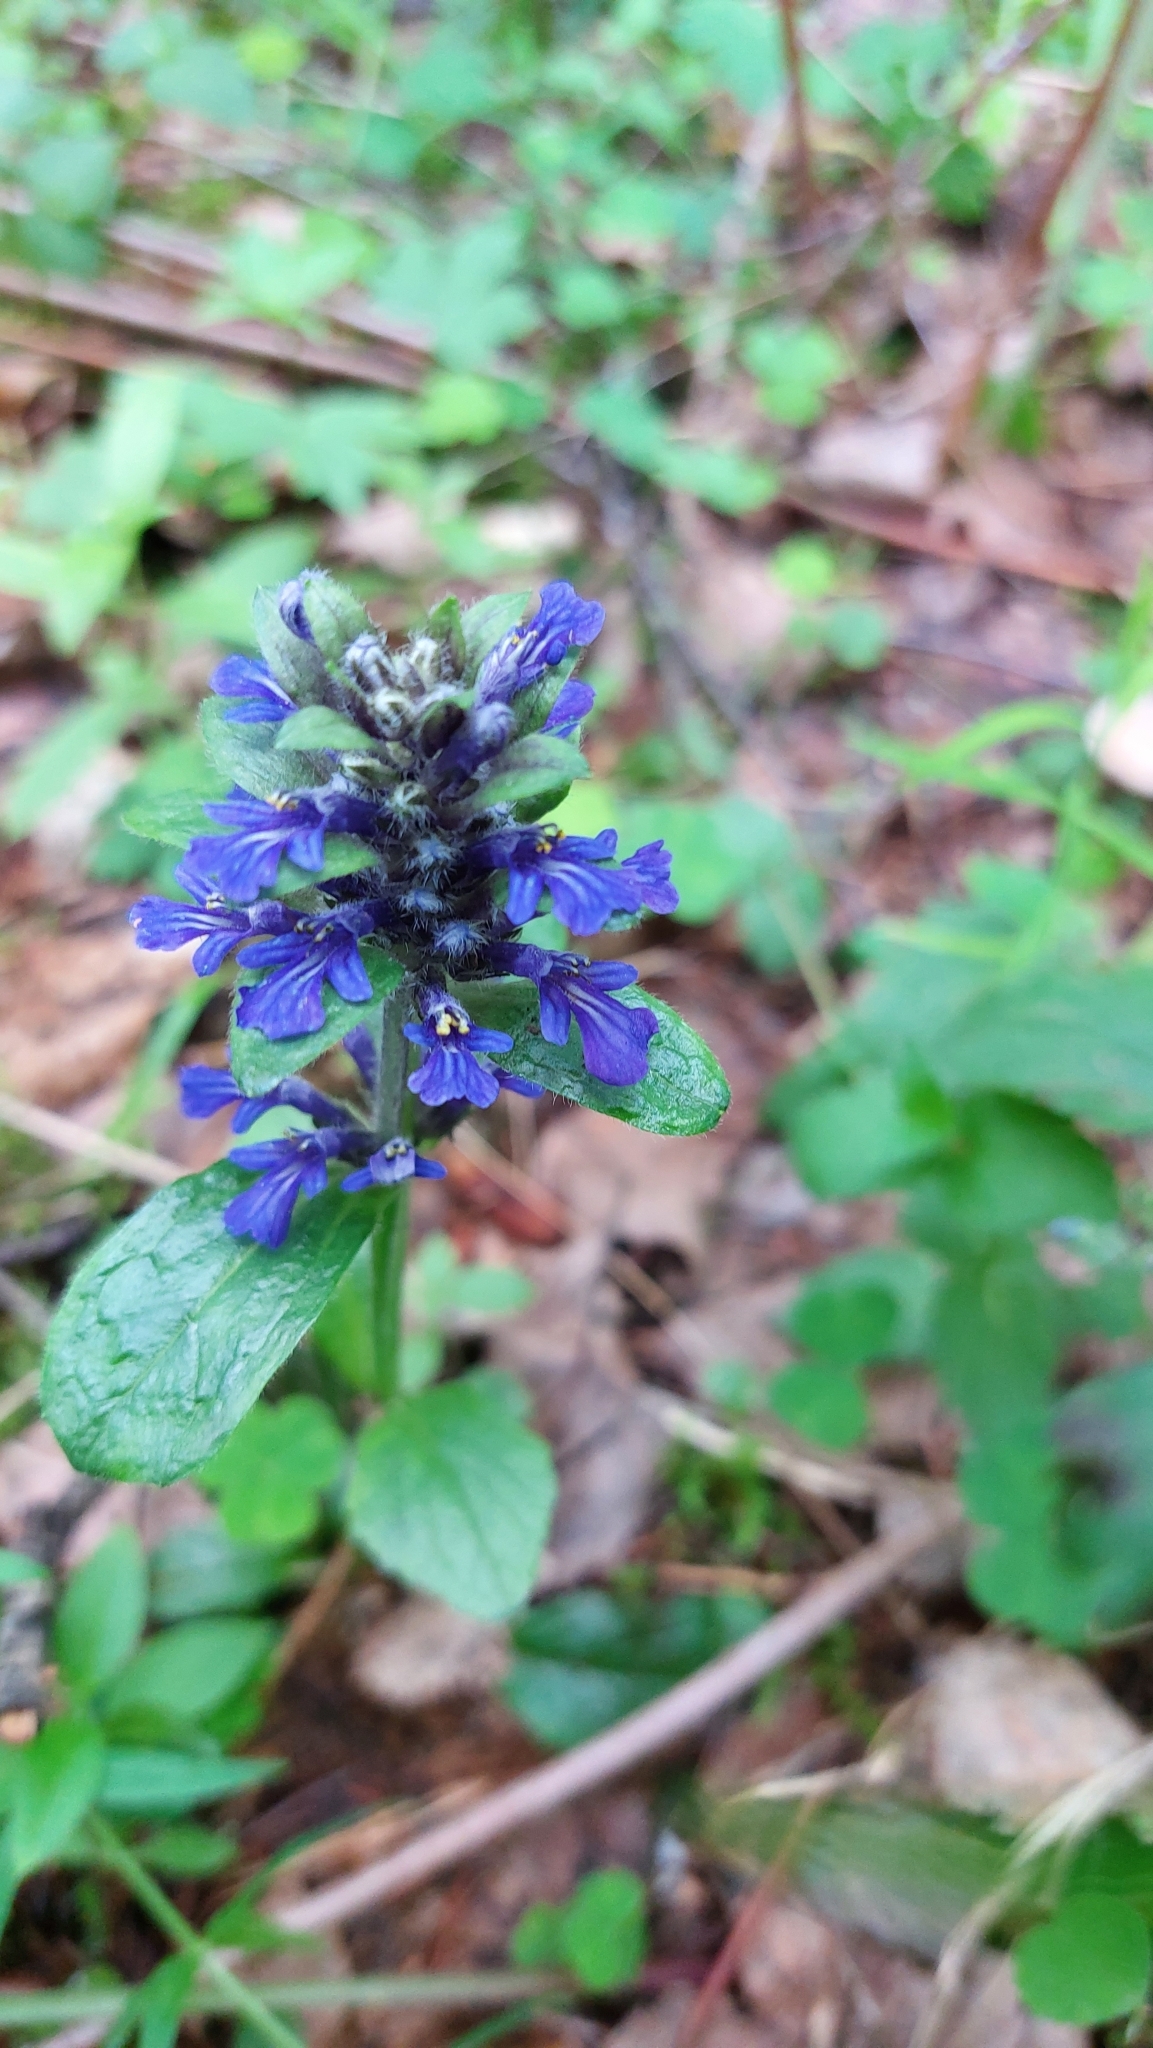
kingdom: Plantae
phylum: Tracheophyta
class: Magnoliopsida
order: Lamiales
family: Lamiaceae
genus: Ajuga
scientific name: Ajuga reptans
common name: Bugle
